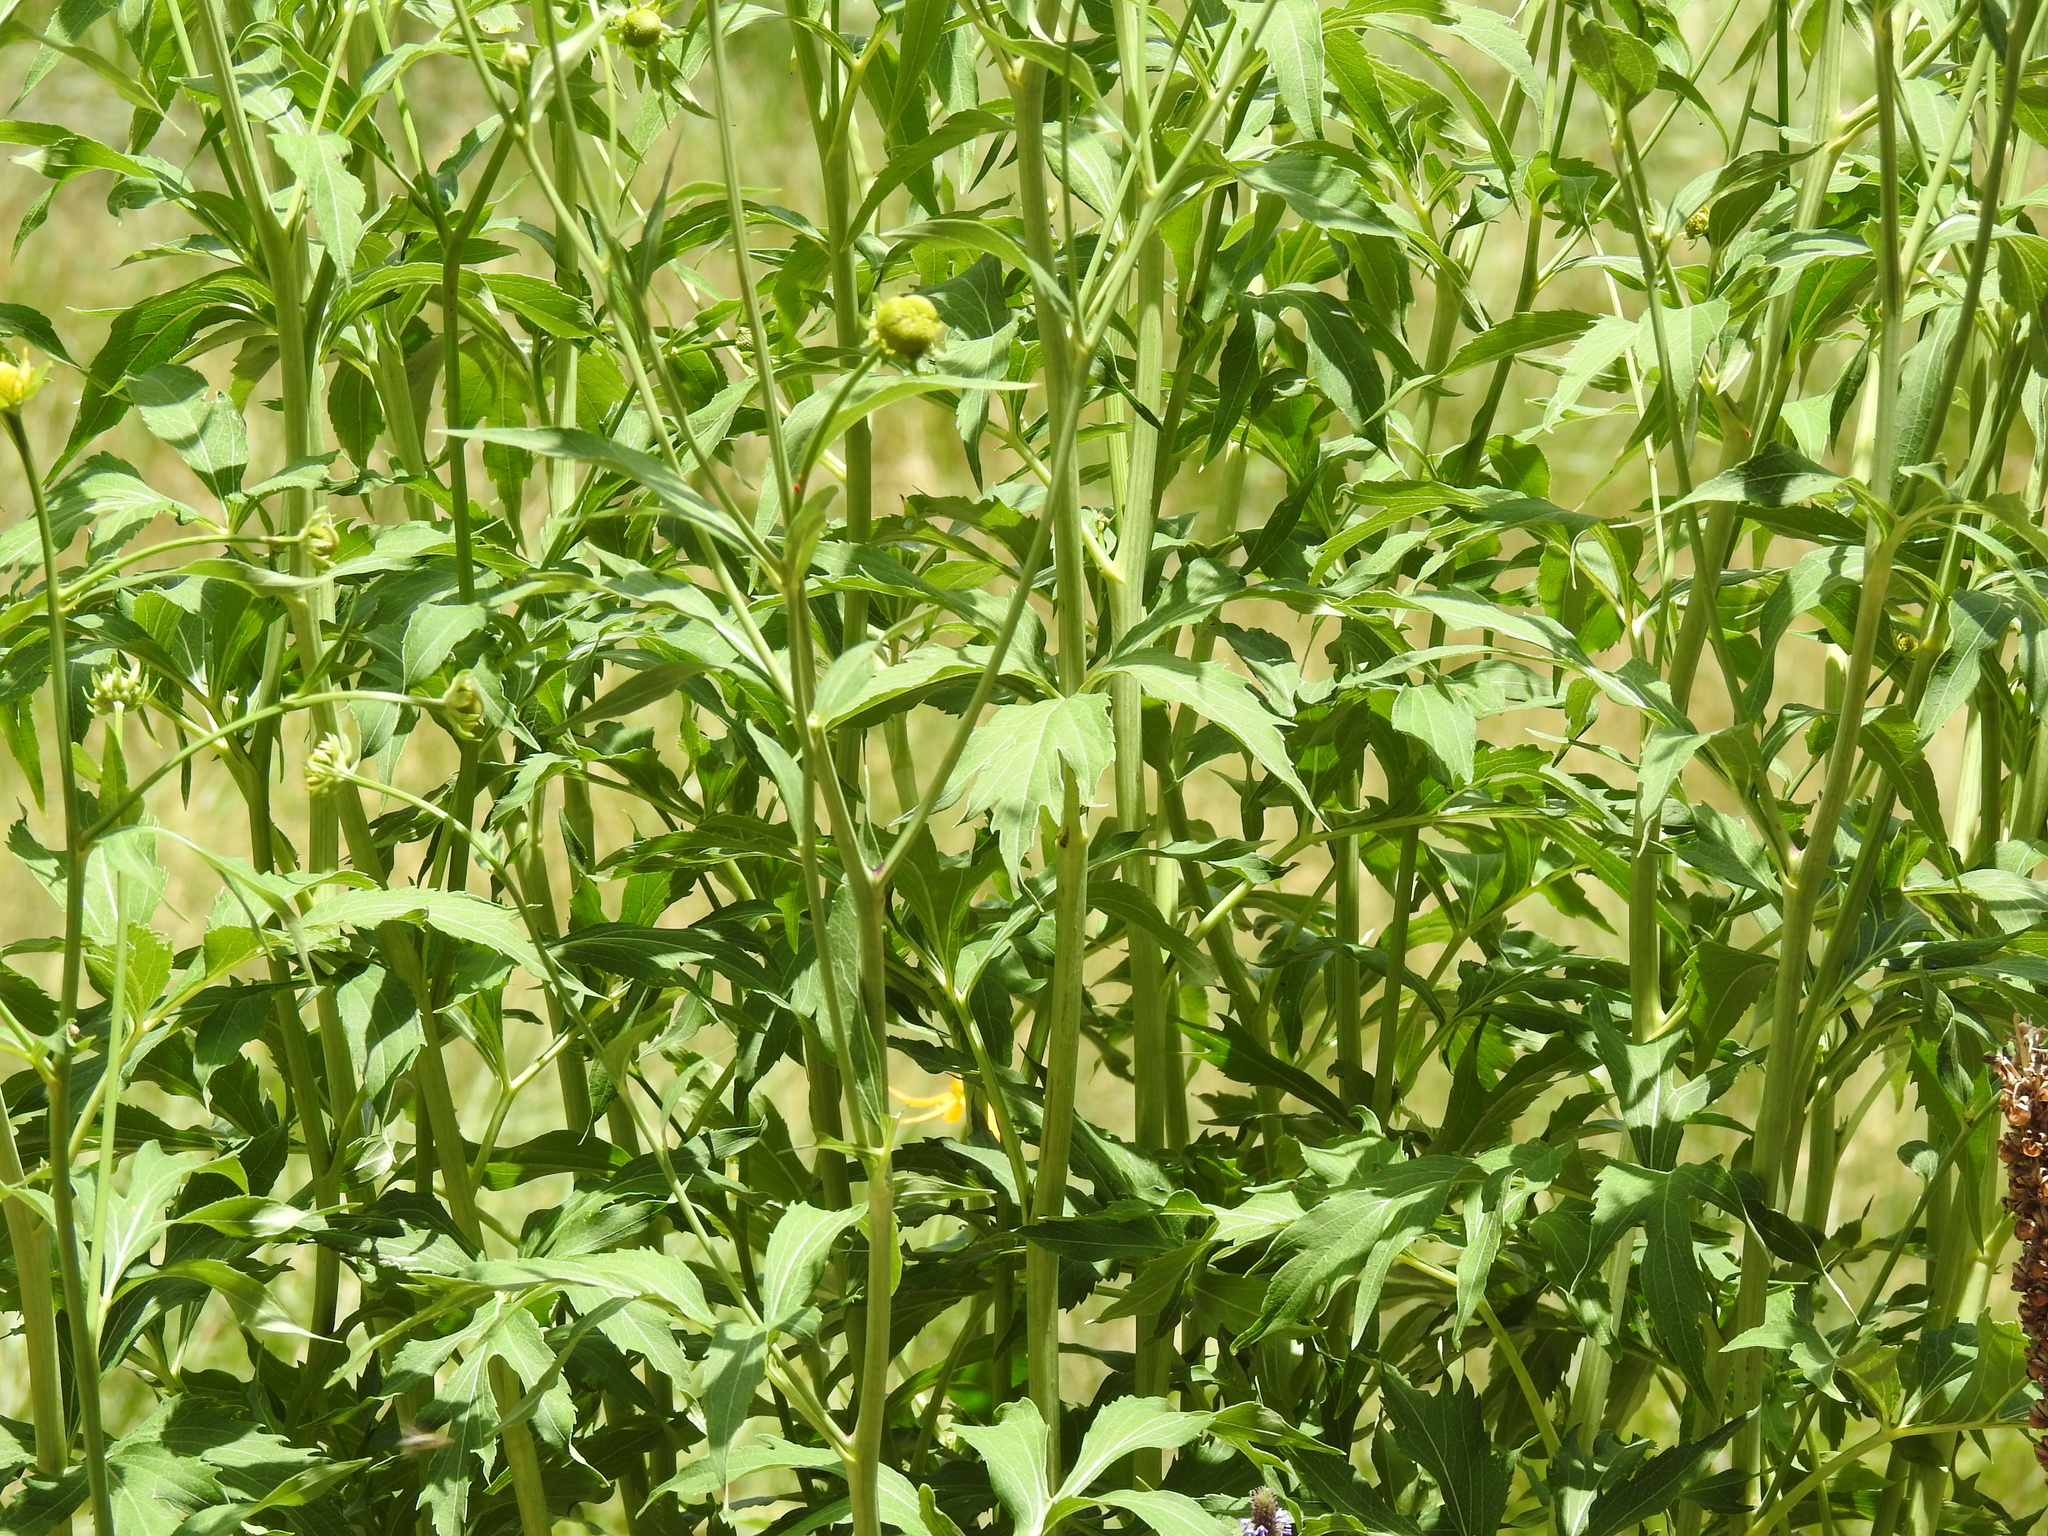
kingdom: Plantae
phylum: Tracheophyta
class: Magnoliopsida
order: Asterales
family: Asteraceae
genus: Rudbeckia
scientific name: Rudbeckia laciniata
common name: Coneflower
